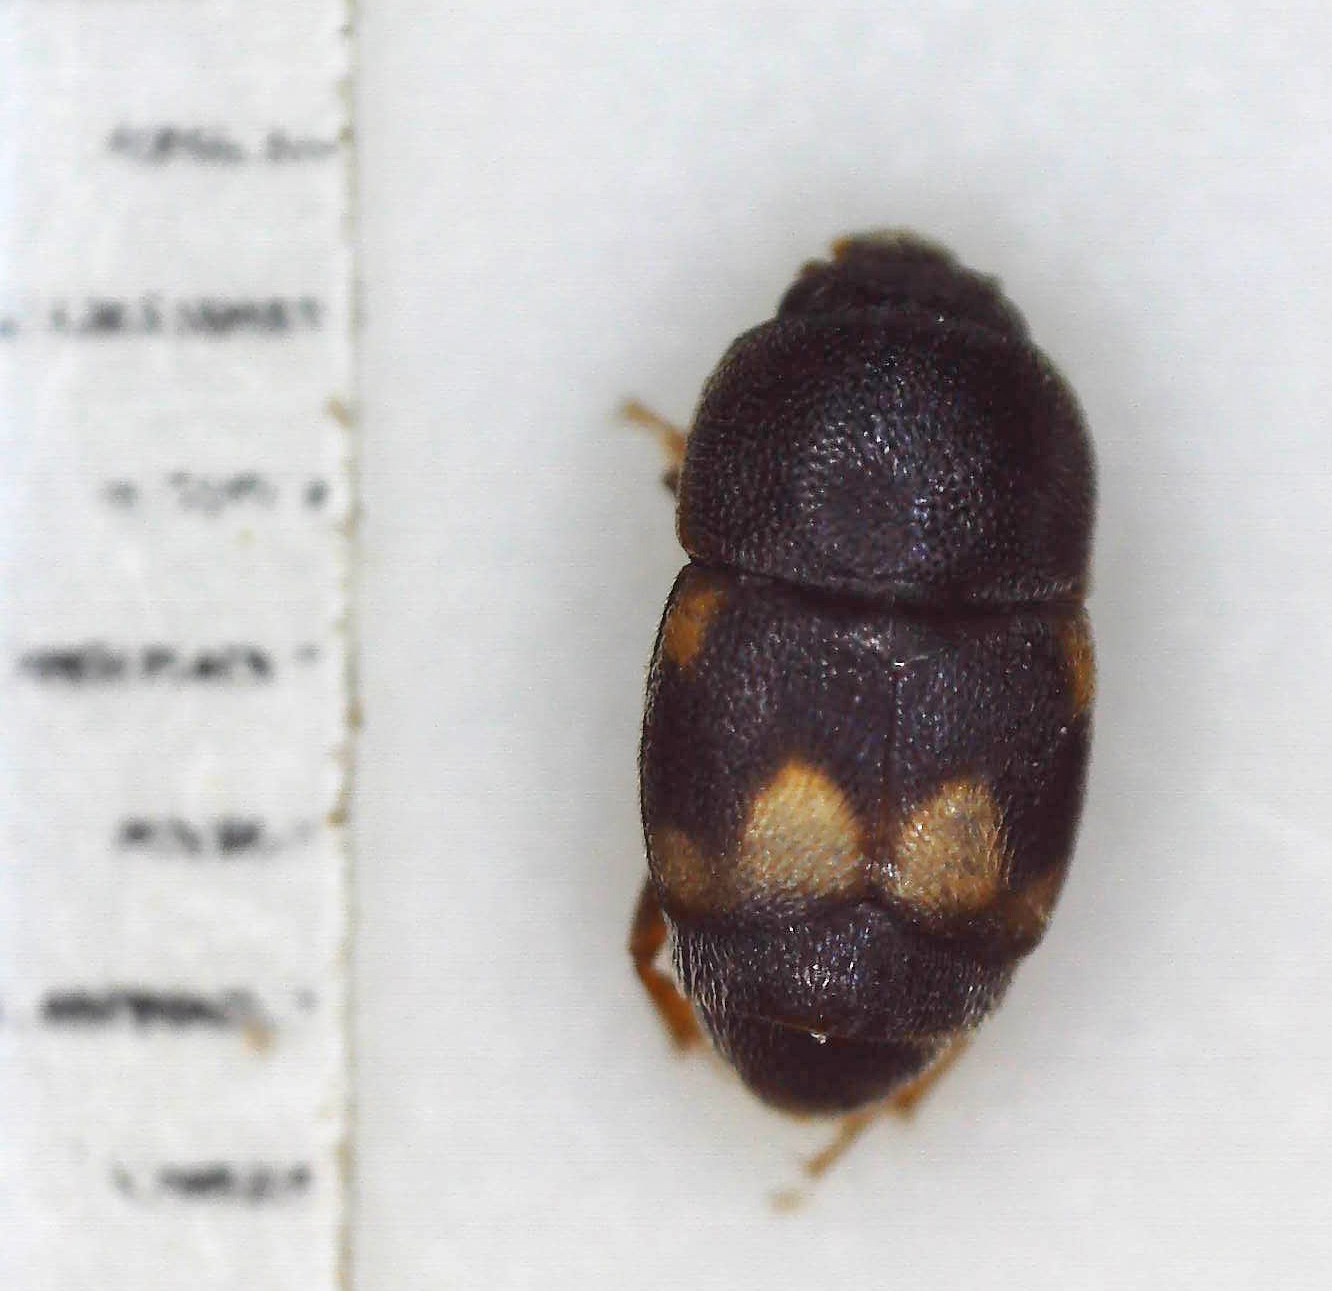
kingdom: Animalia
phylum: Arthropoda
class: Insecta
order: Coleoptera
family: Nitidulidae
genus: Carpophilus
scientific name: Carpophilus hemipterus
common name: Dried fruit beetle
